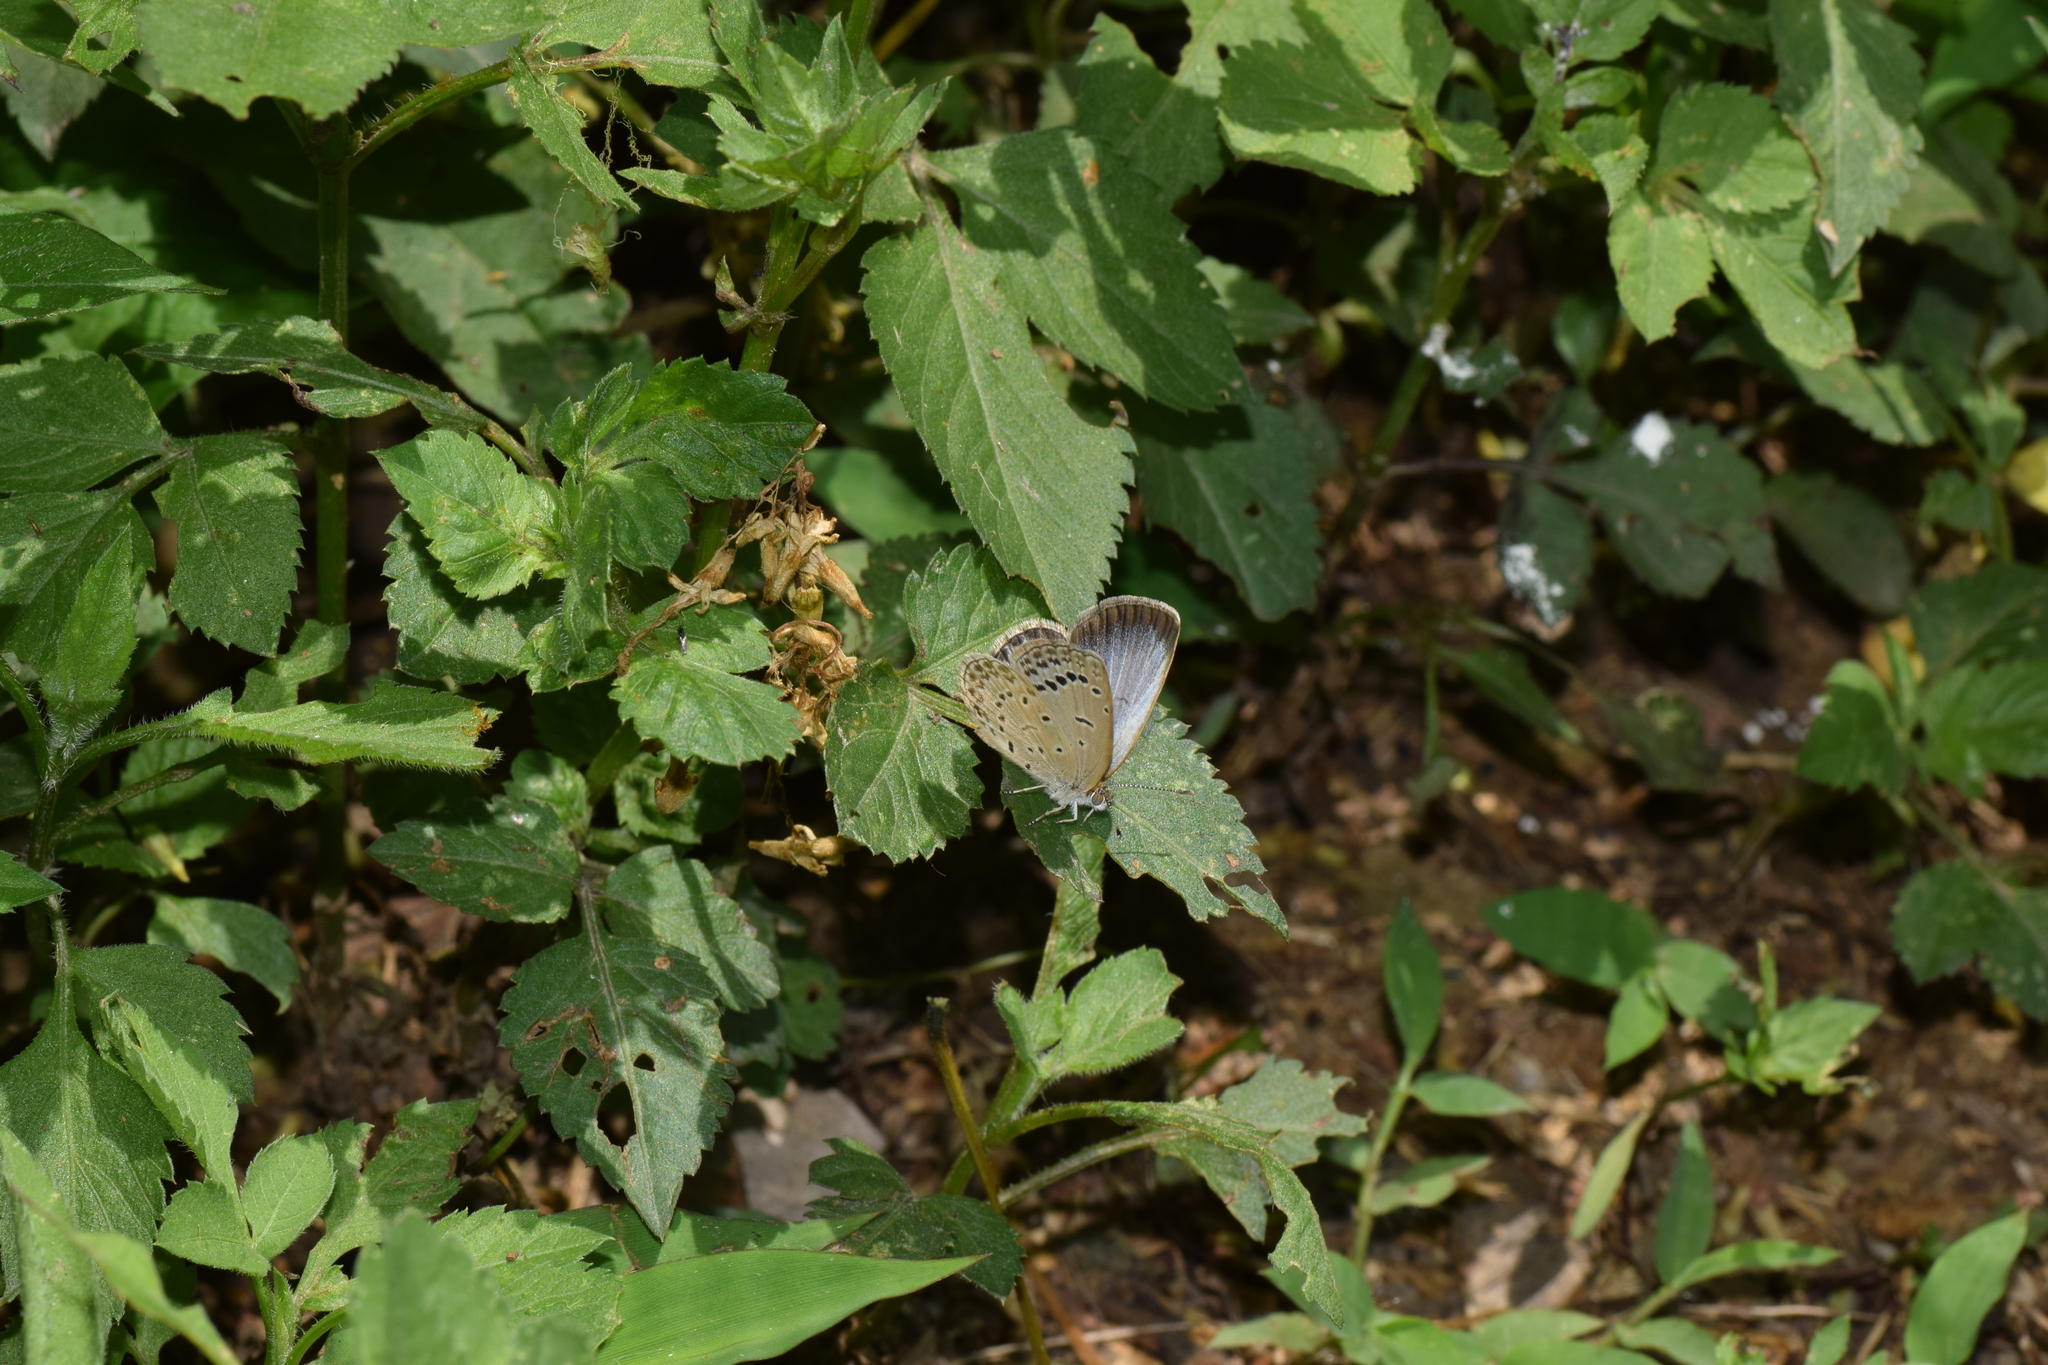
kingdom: Animalia
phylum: Arthropoda
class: Insecta
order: Lepidoptera
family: Lycaenidae
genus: Pseudozizeeria
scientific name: Pseudozizeeria maha
